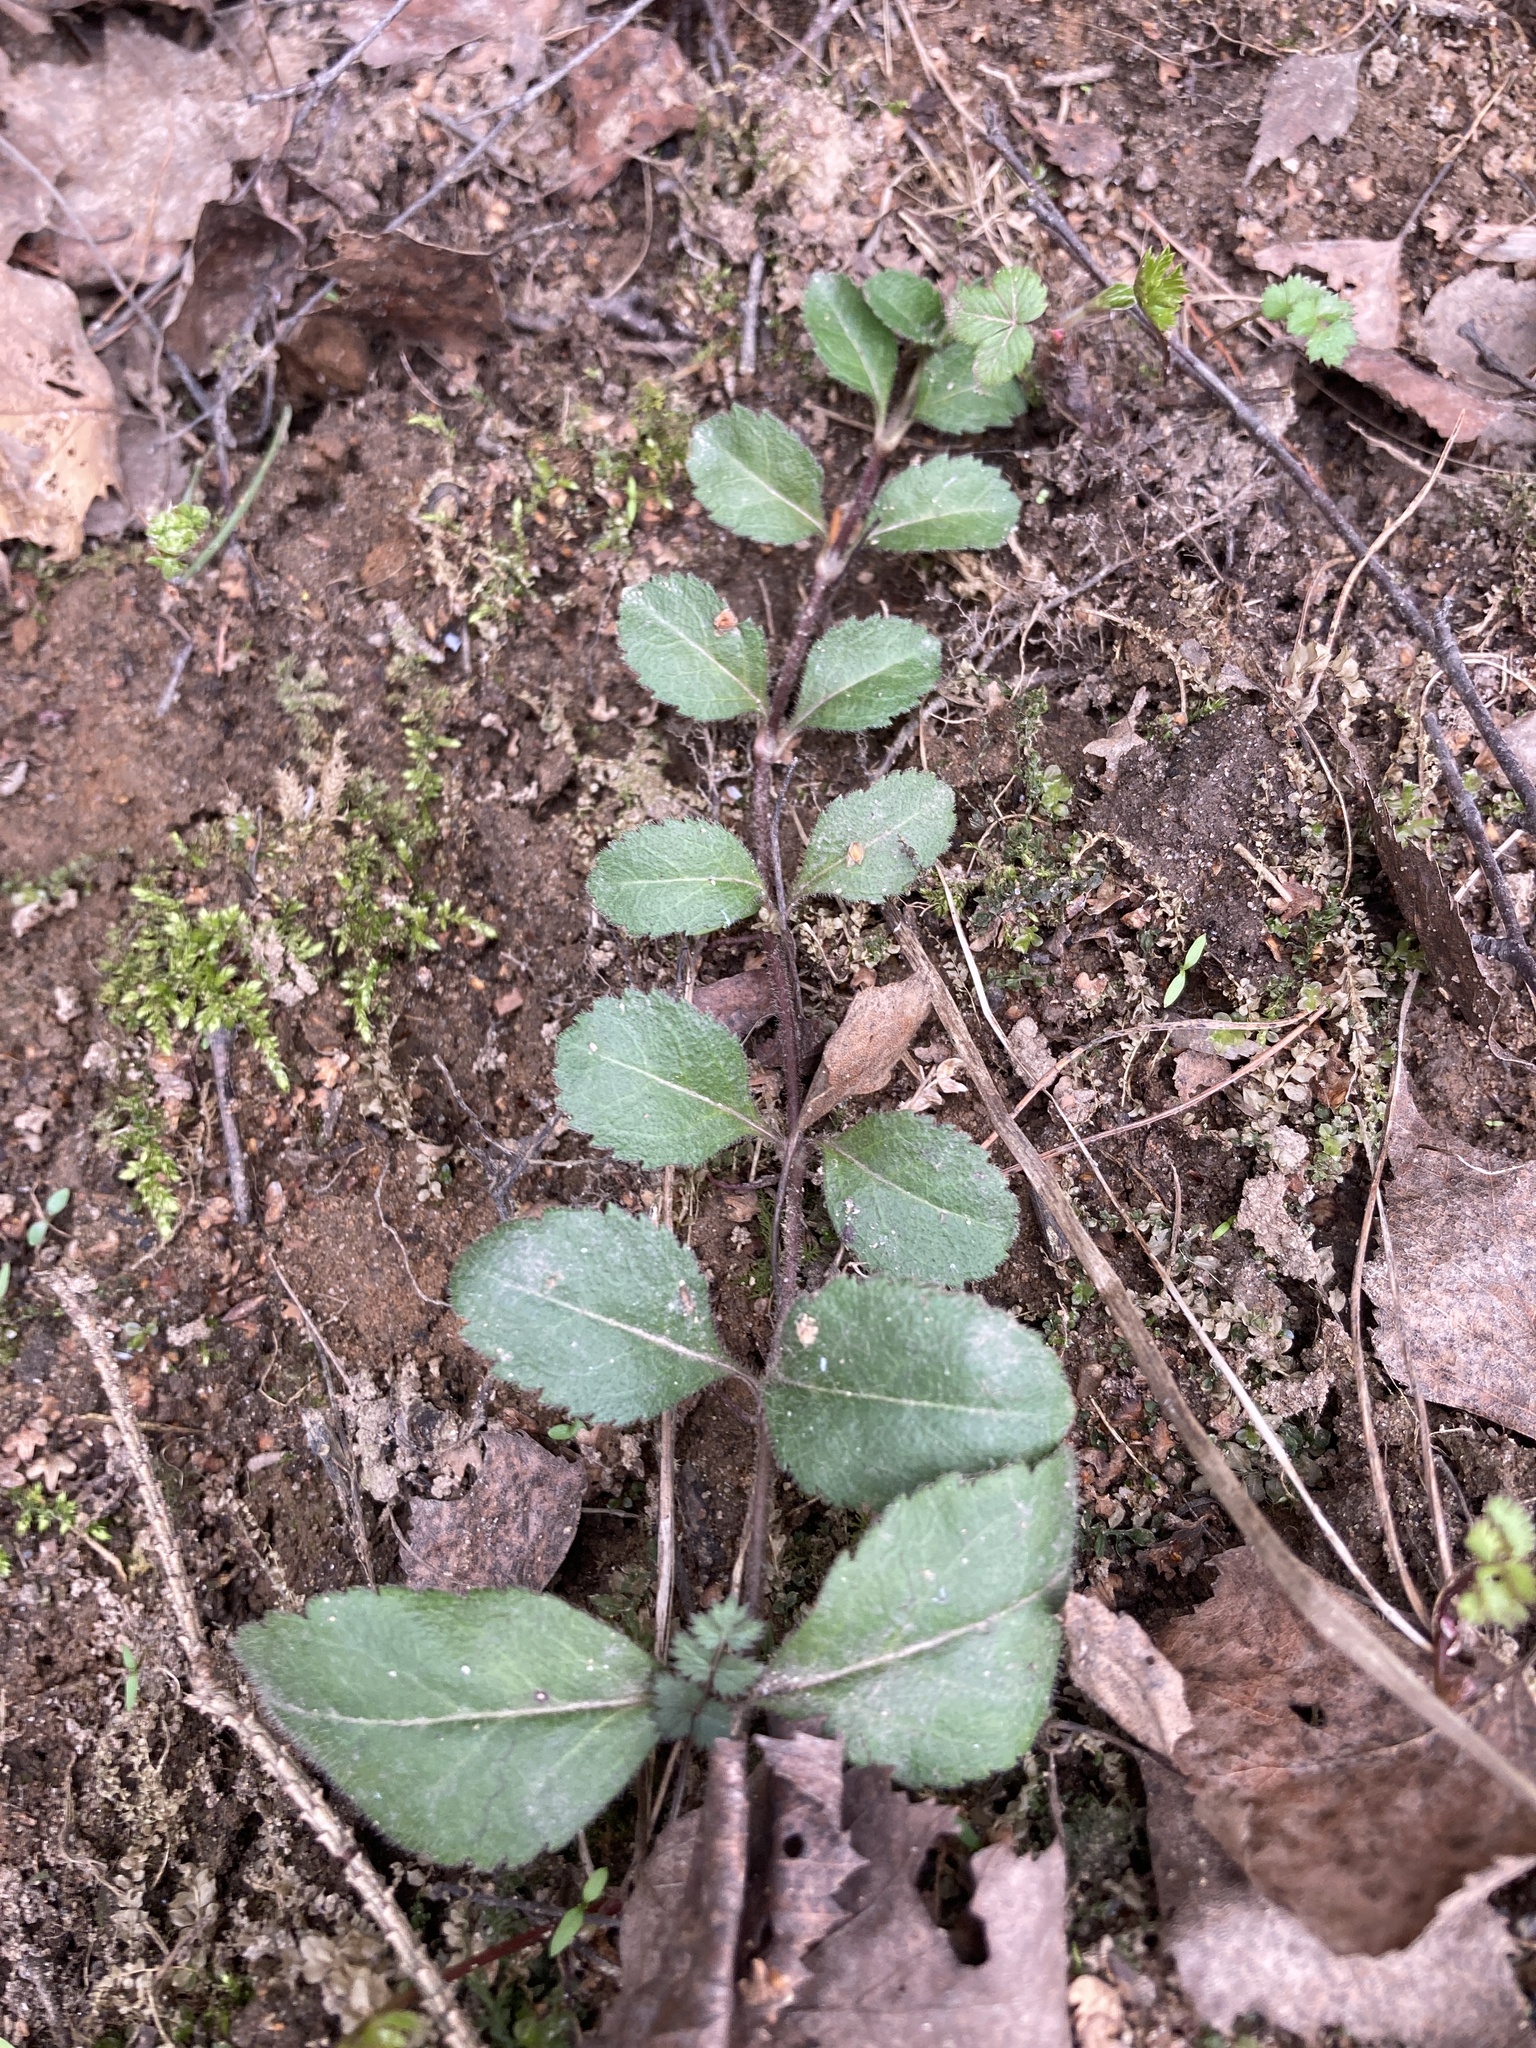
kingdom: Plantae
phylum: Tracheophyta
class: Magnoliopsida
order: Lamiales
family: Plantaginaceae
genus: Veronica
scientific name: Veronica officinalis
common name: Common speedwell
